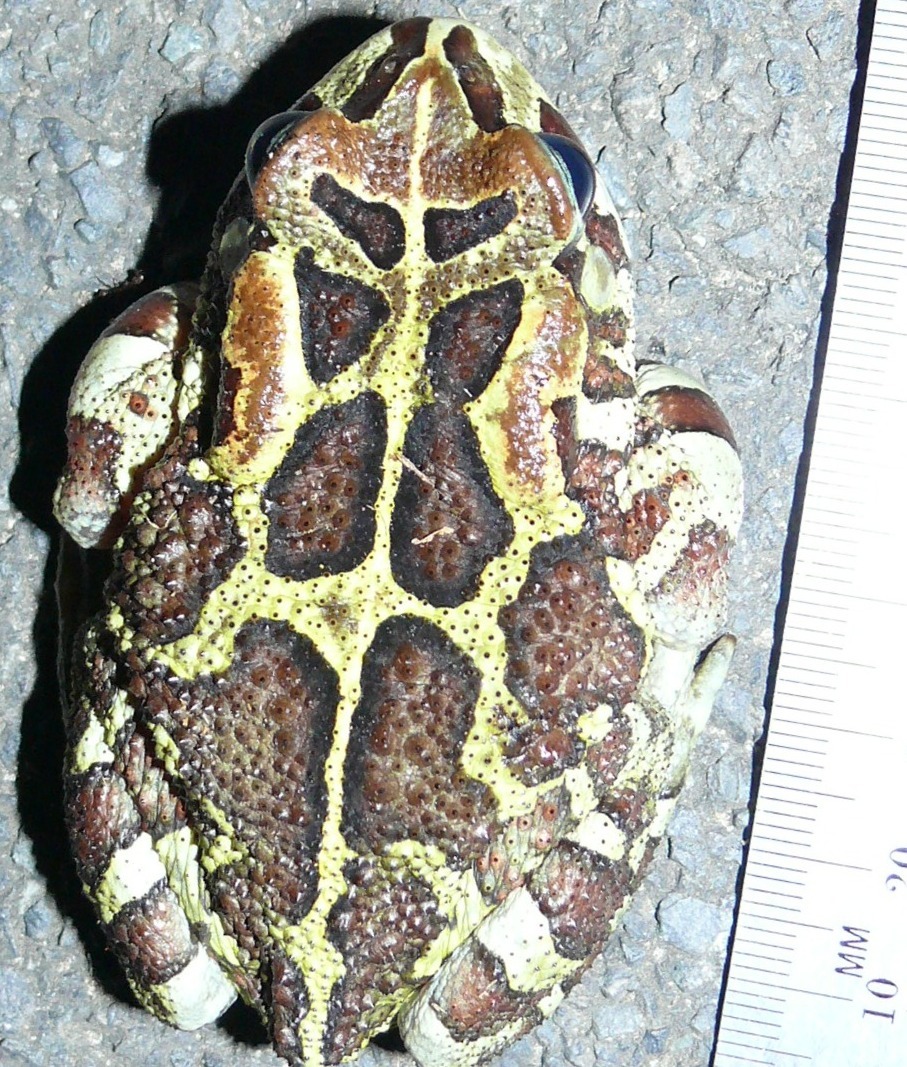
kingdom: Animalia
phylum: Chordata
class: Amphibia
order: Anura
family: Bufonidae
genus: Sclerophrys
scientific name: Sclerophrys pantherina
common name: Panther toad
